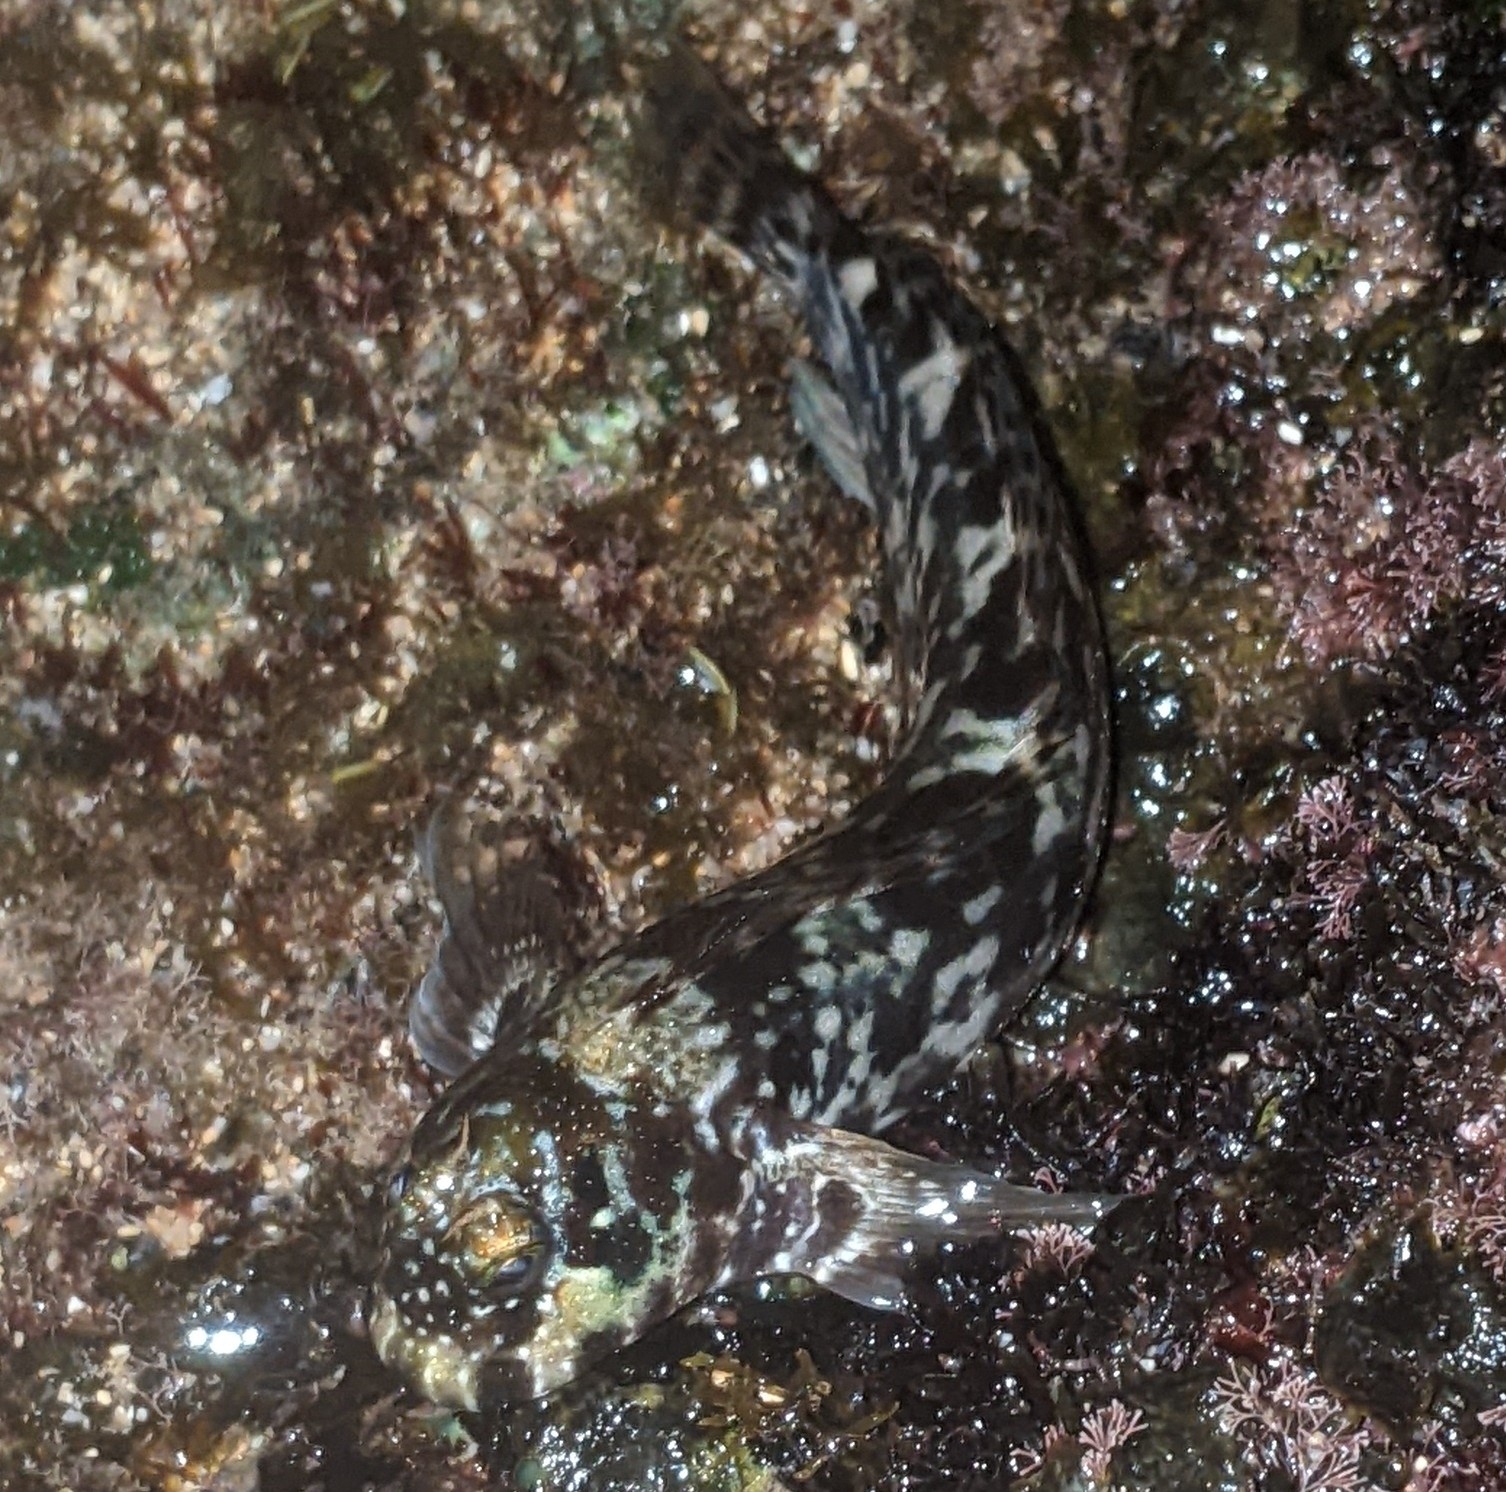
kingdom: Animalia
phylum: Chordata
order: Perciformes
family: Blenniidae
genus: Entomacrodus
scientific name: Entomacrodus marmoratus
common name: Marbled blenny
